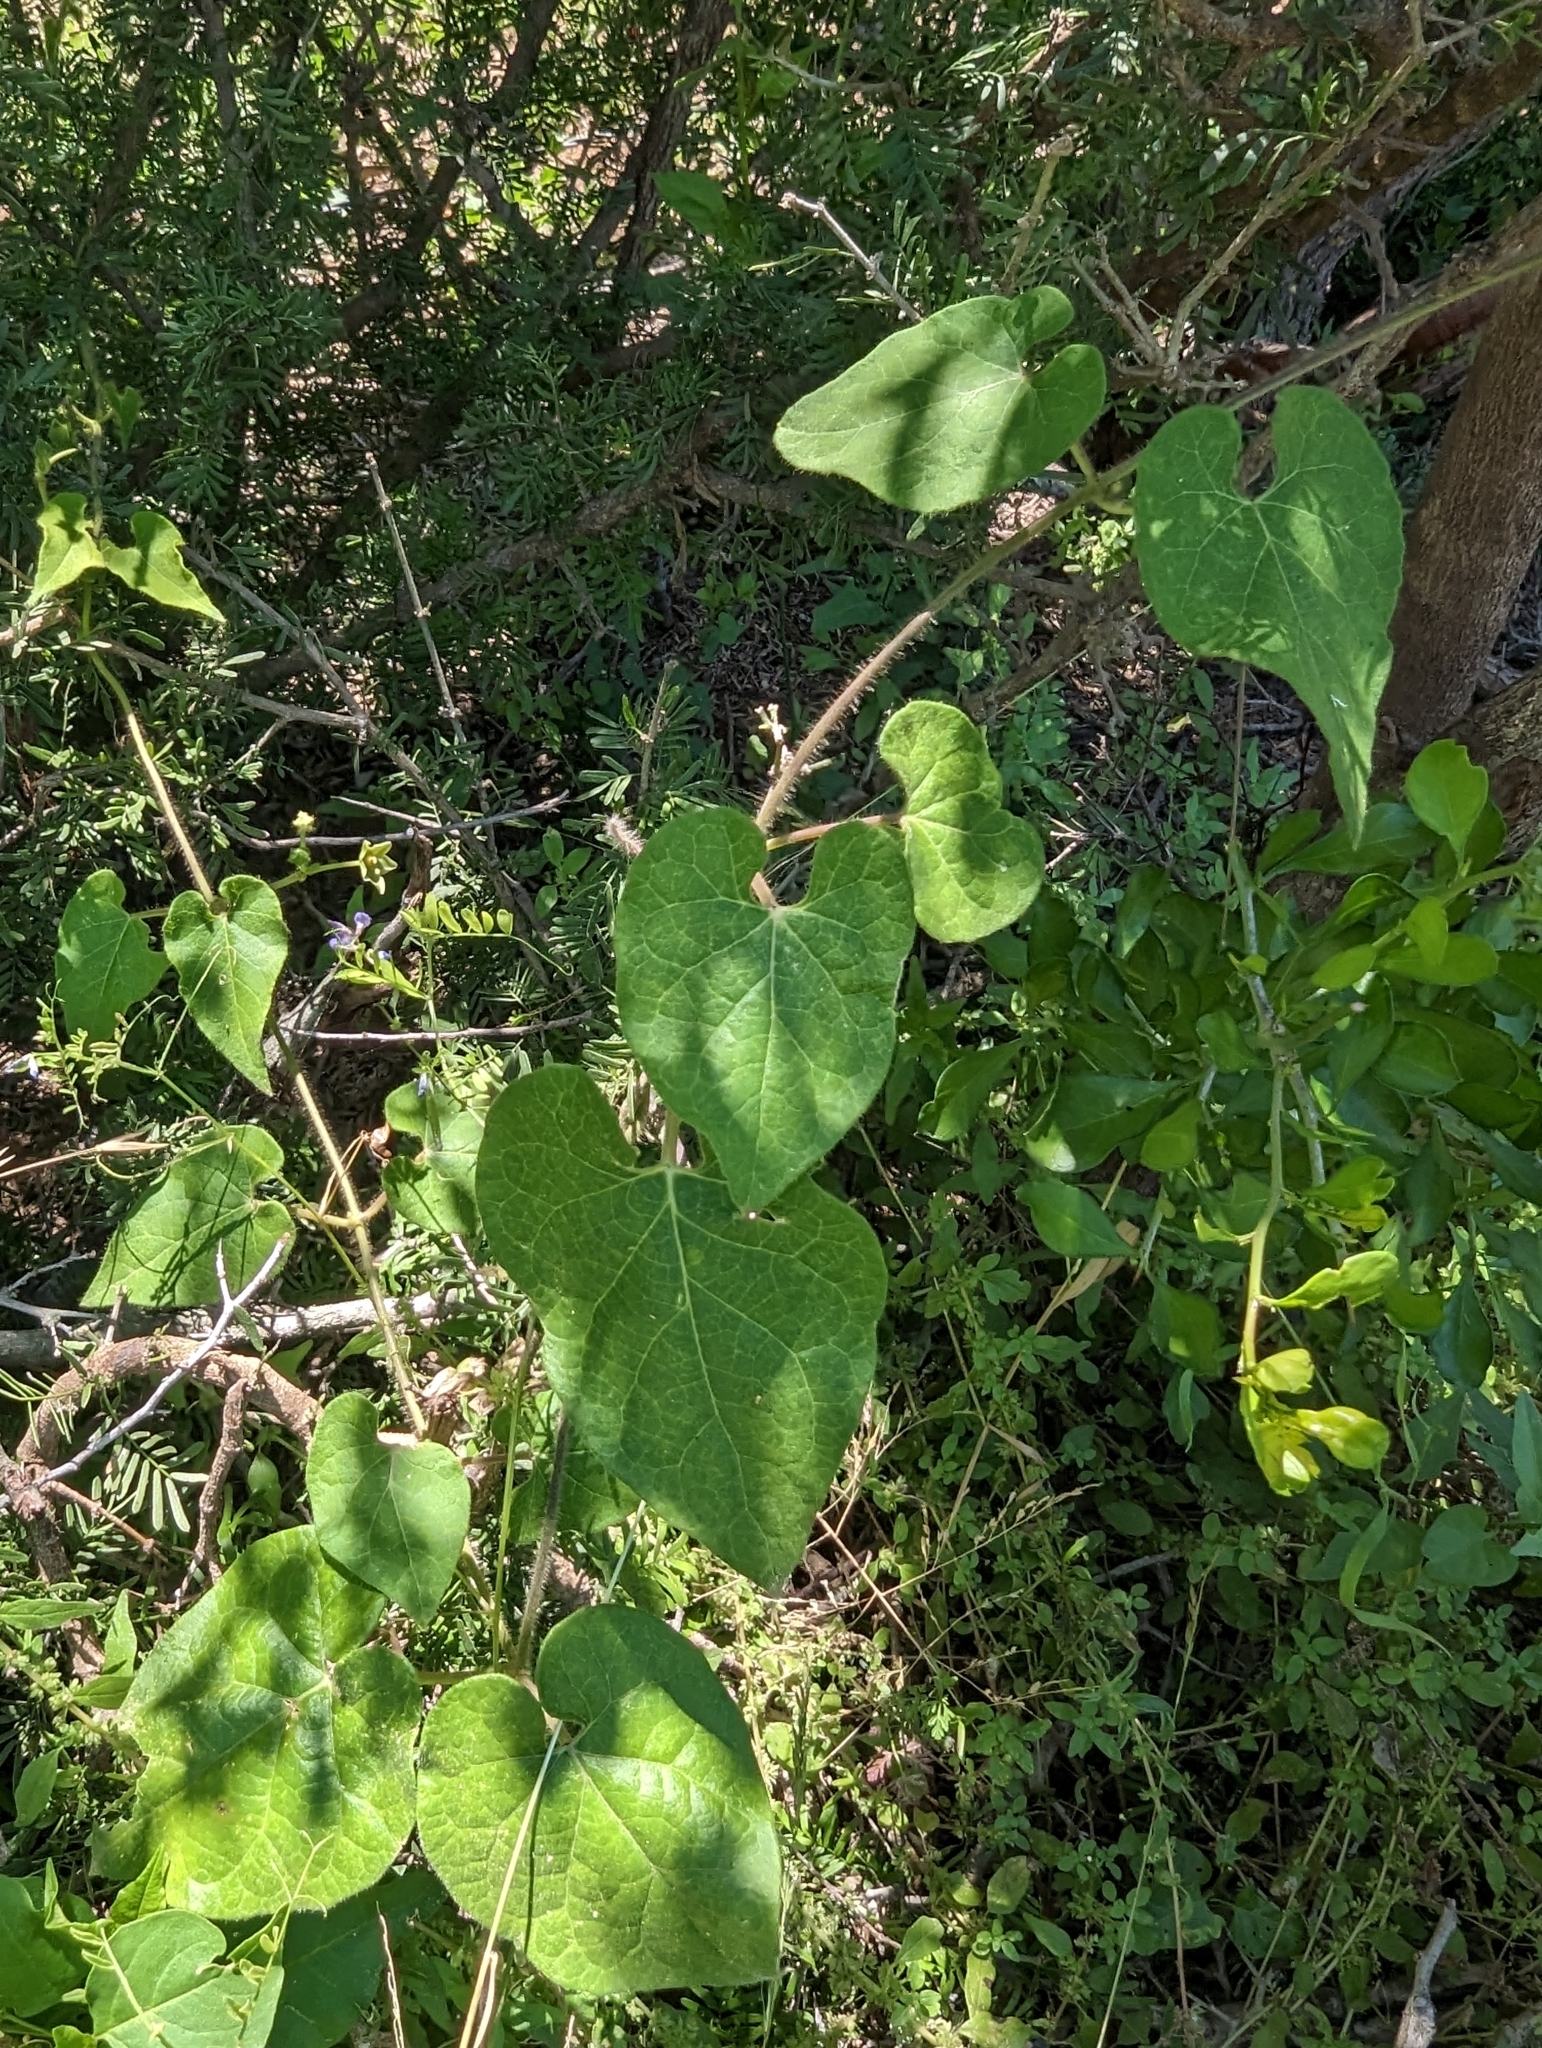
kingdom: Plantae
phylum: Tracheophyta
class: Magnoliopsida
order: Gentianales
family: Apocynaceae
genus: Dictyanthus
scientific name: Dictyanthus reticulatus
